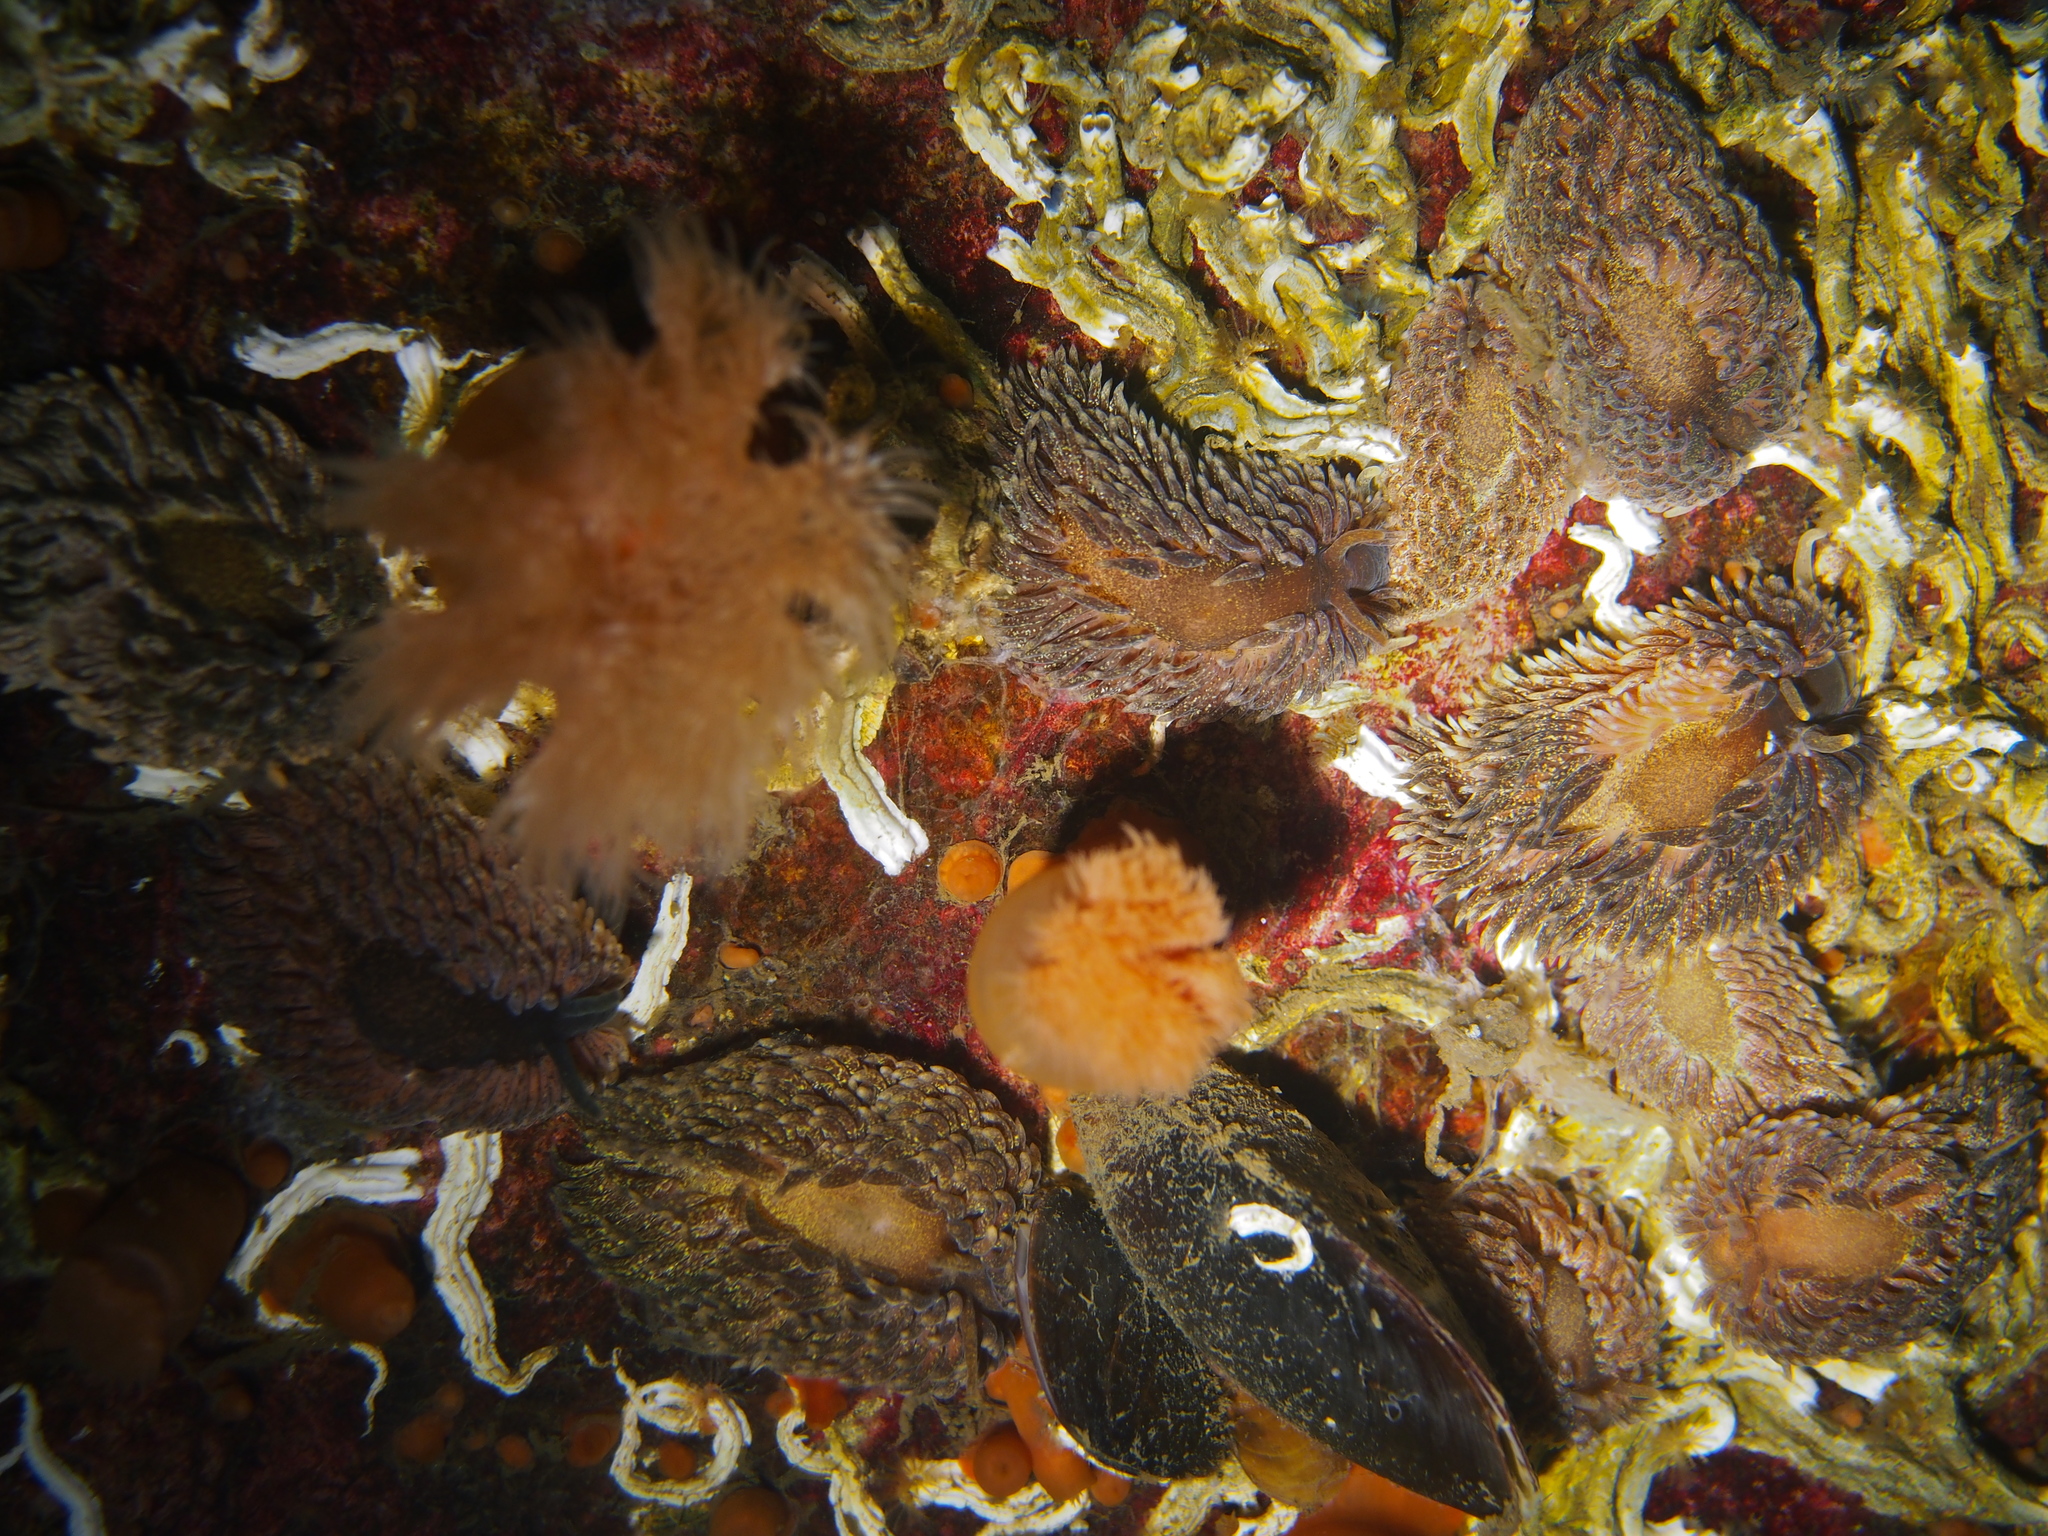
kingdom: Animalia
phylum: Mollusca
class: Gastropoda
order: Nudibranchia
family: Aeolidiidae
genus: Aeolidia
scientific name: Aeolidia papillosa
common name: Common grey sea slug
